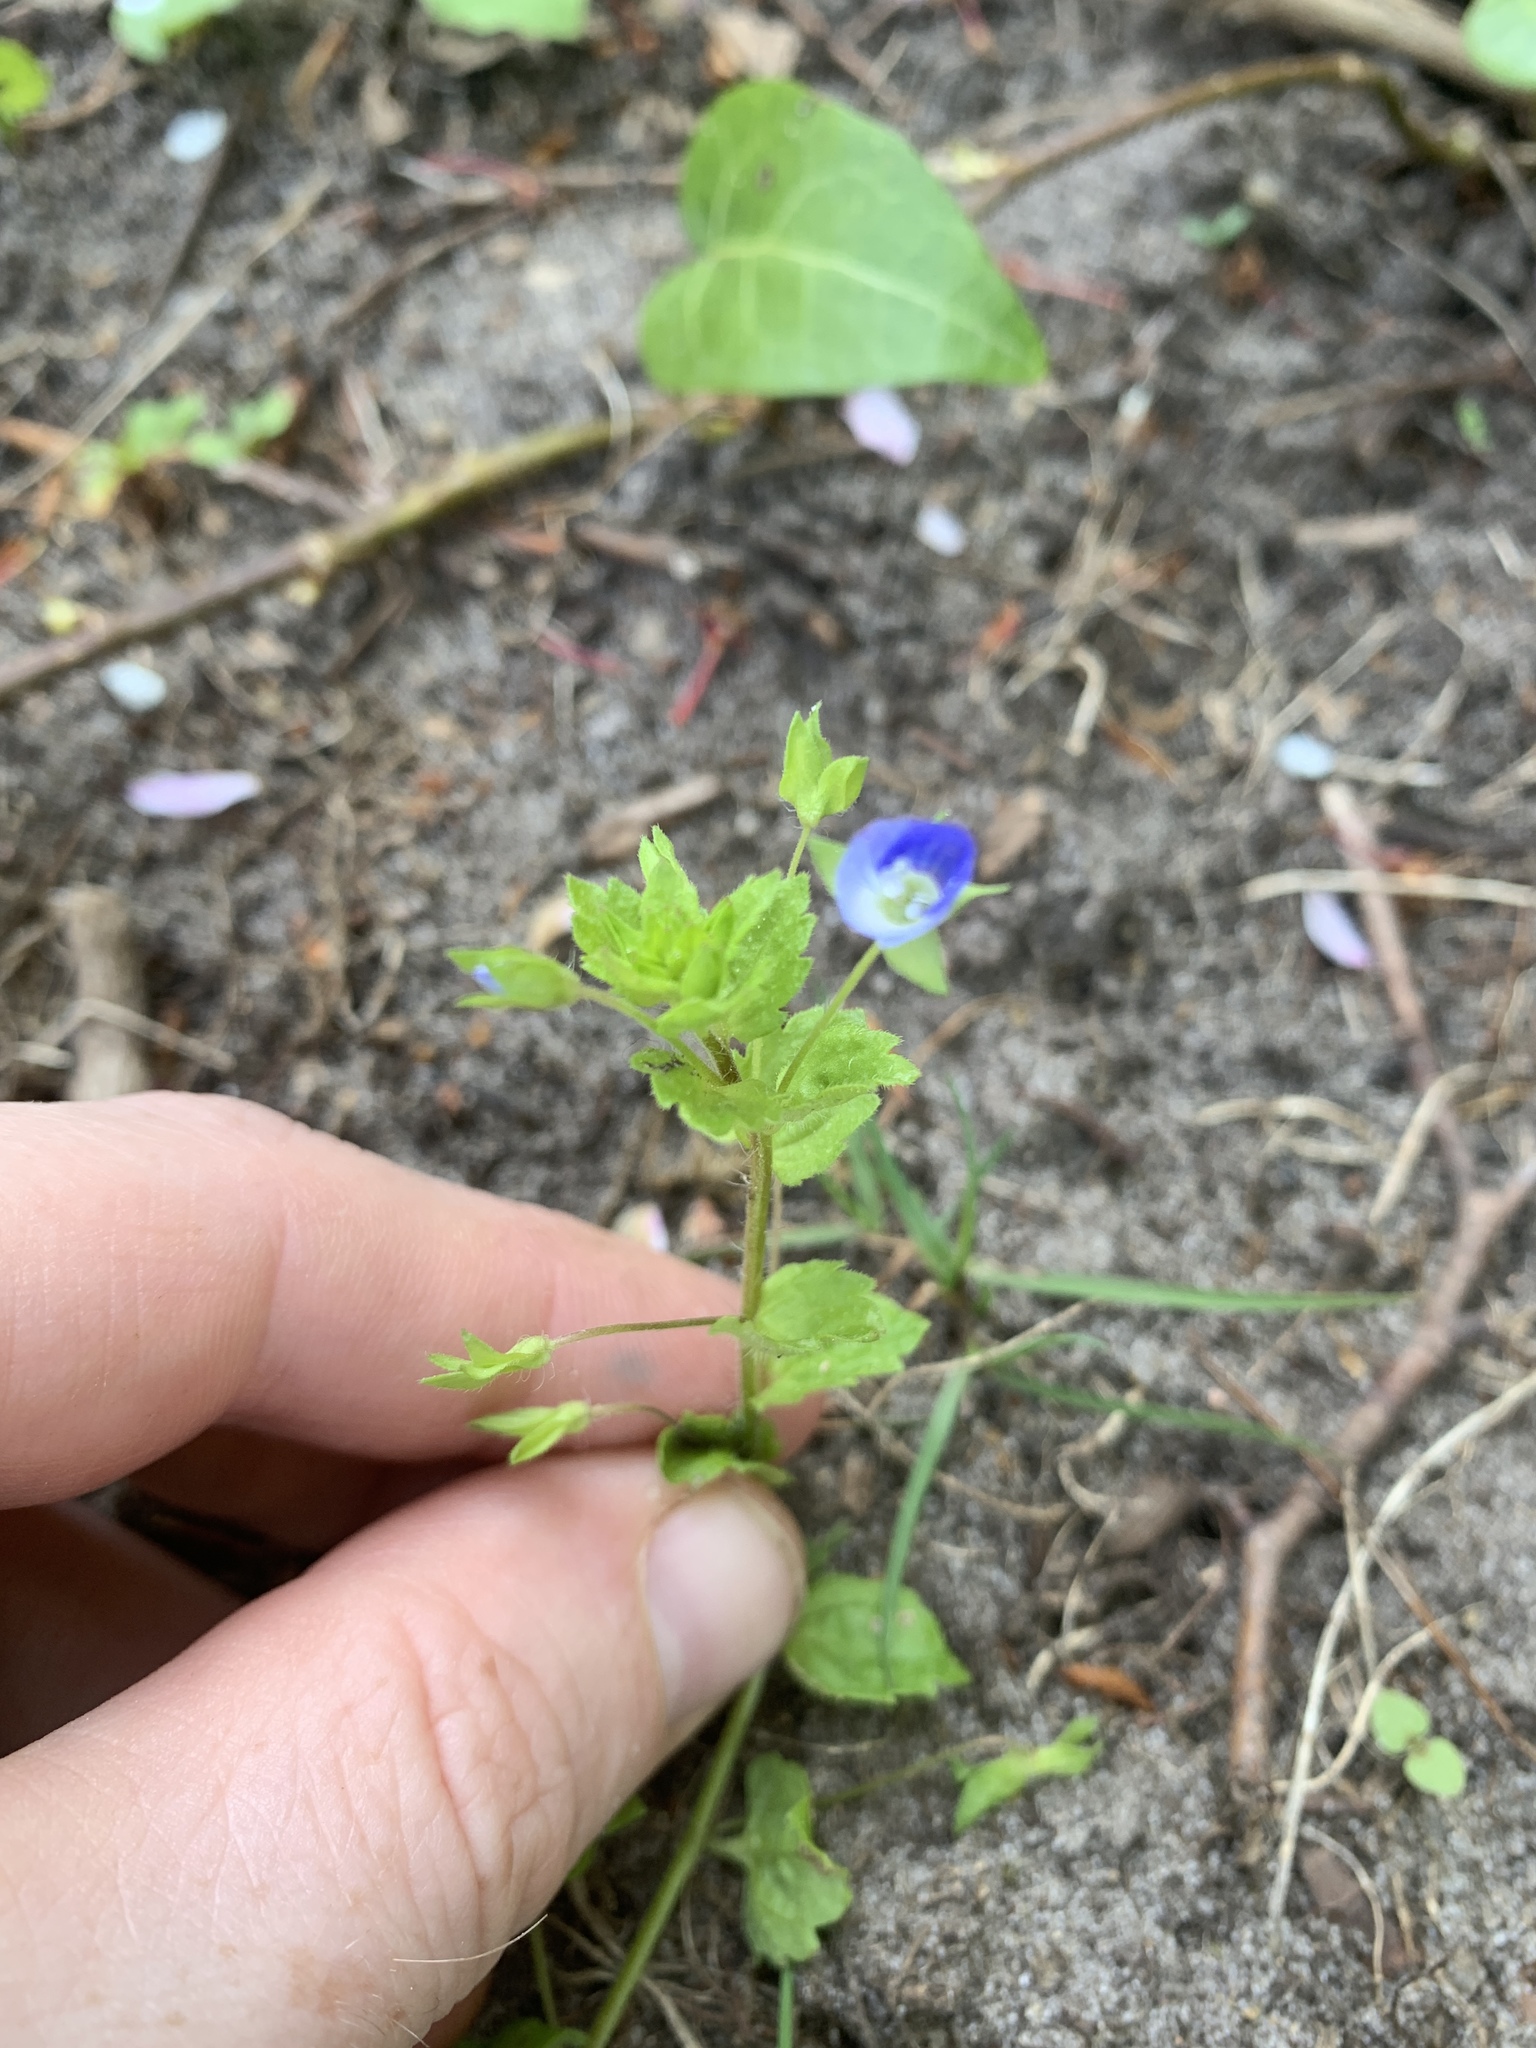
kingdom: Plantae
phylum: Tracheophyta
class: Magnoliopsida
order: Lamiales
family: Plantaginaceae
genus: Veronica
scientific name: Veronica persica
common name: Common field-speedwell
